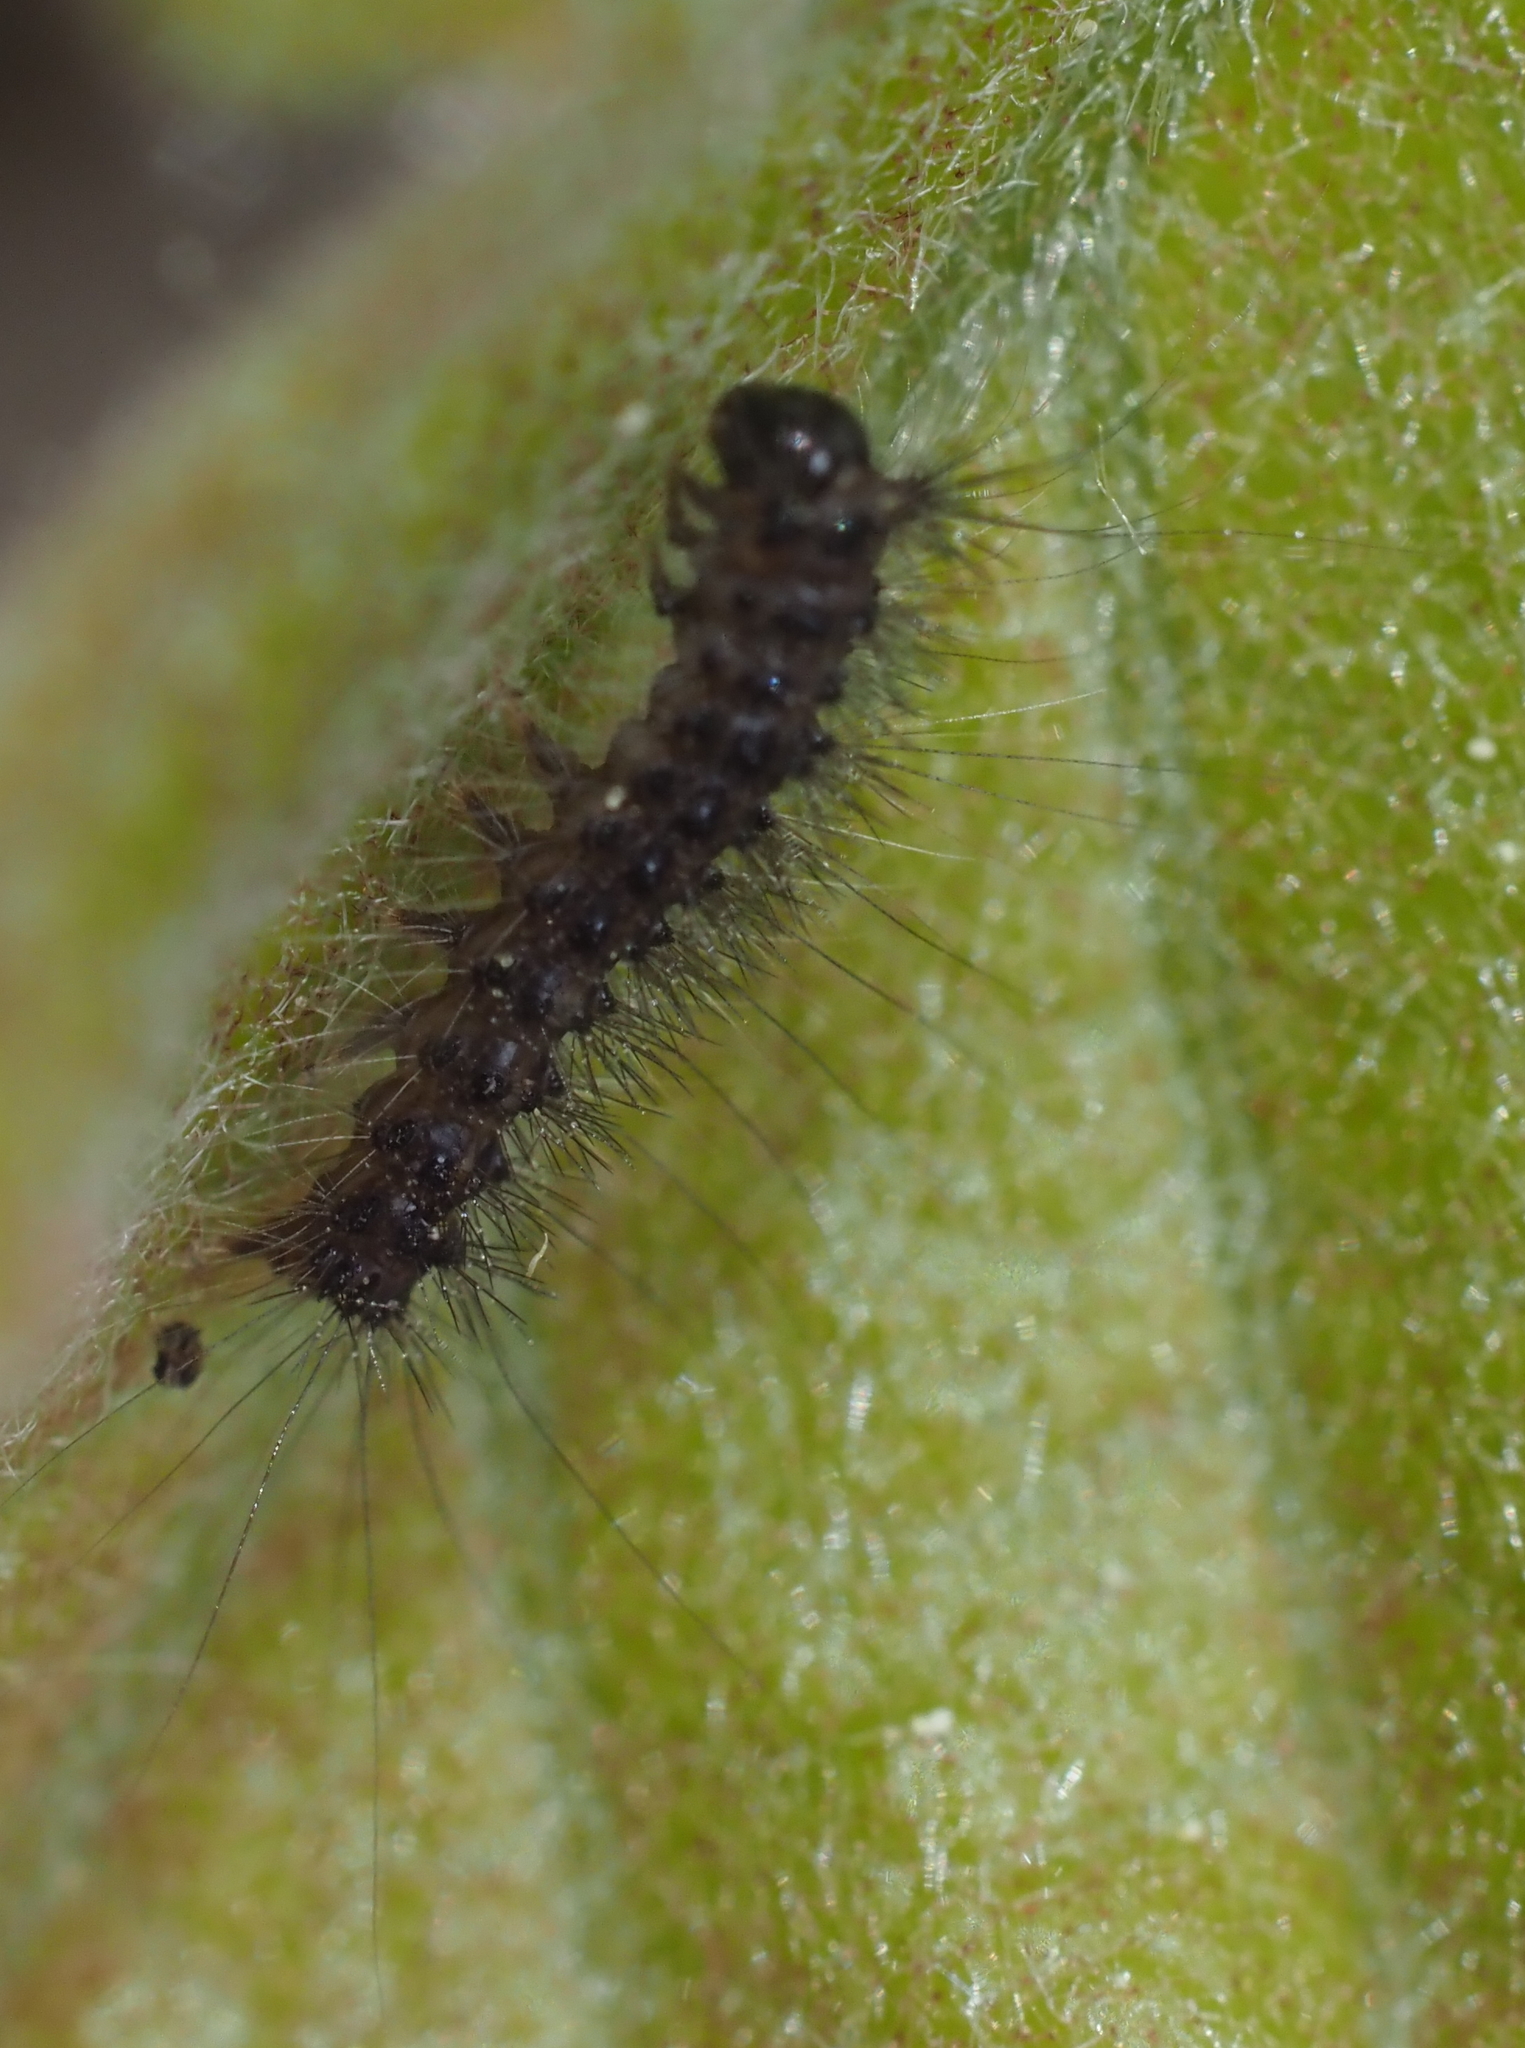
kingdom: Animalia
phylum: Arthropoda
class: Insecta
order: Lepidoptera
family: Erebidae
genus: Lymantria
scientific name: Lymantria dispar
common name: Gypsy moth
